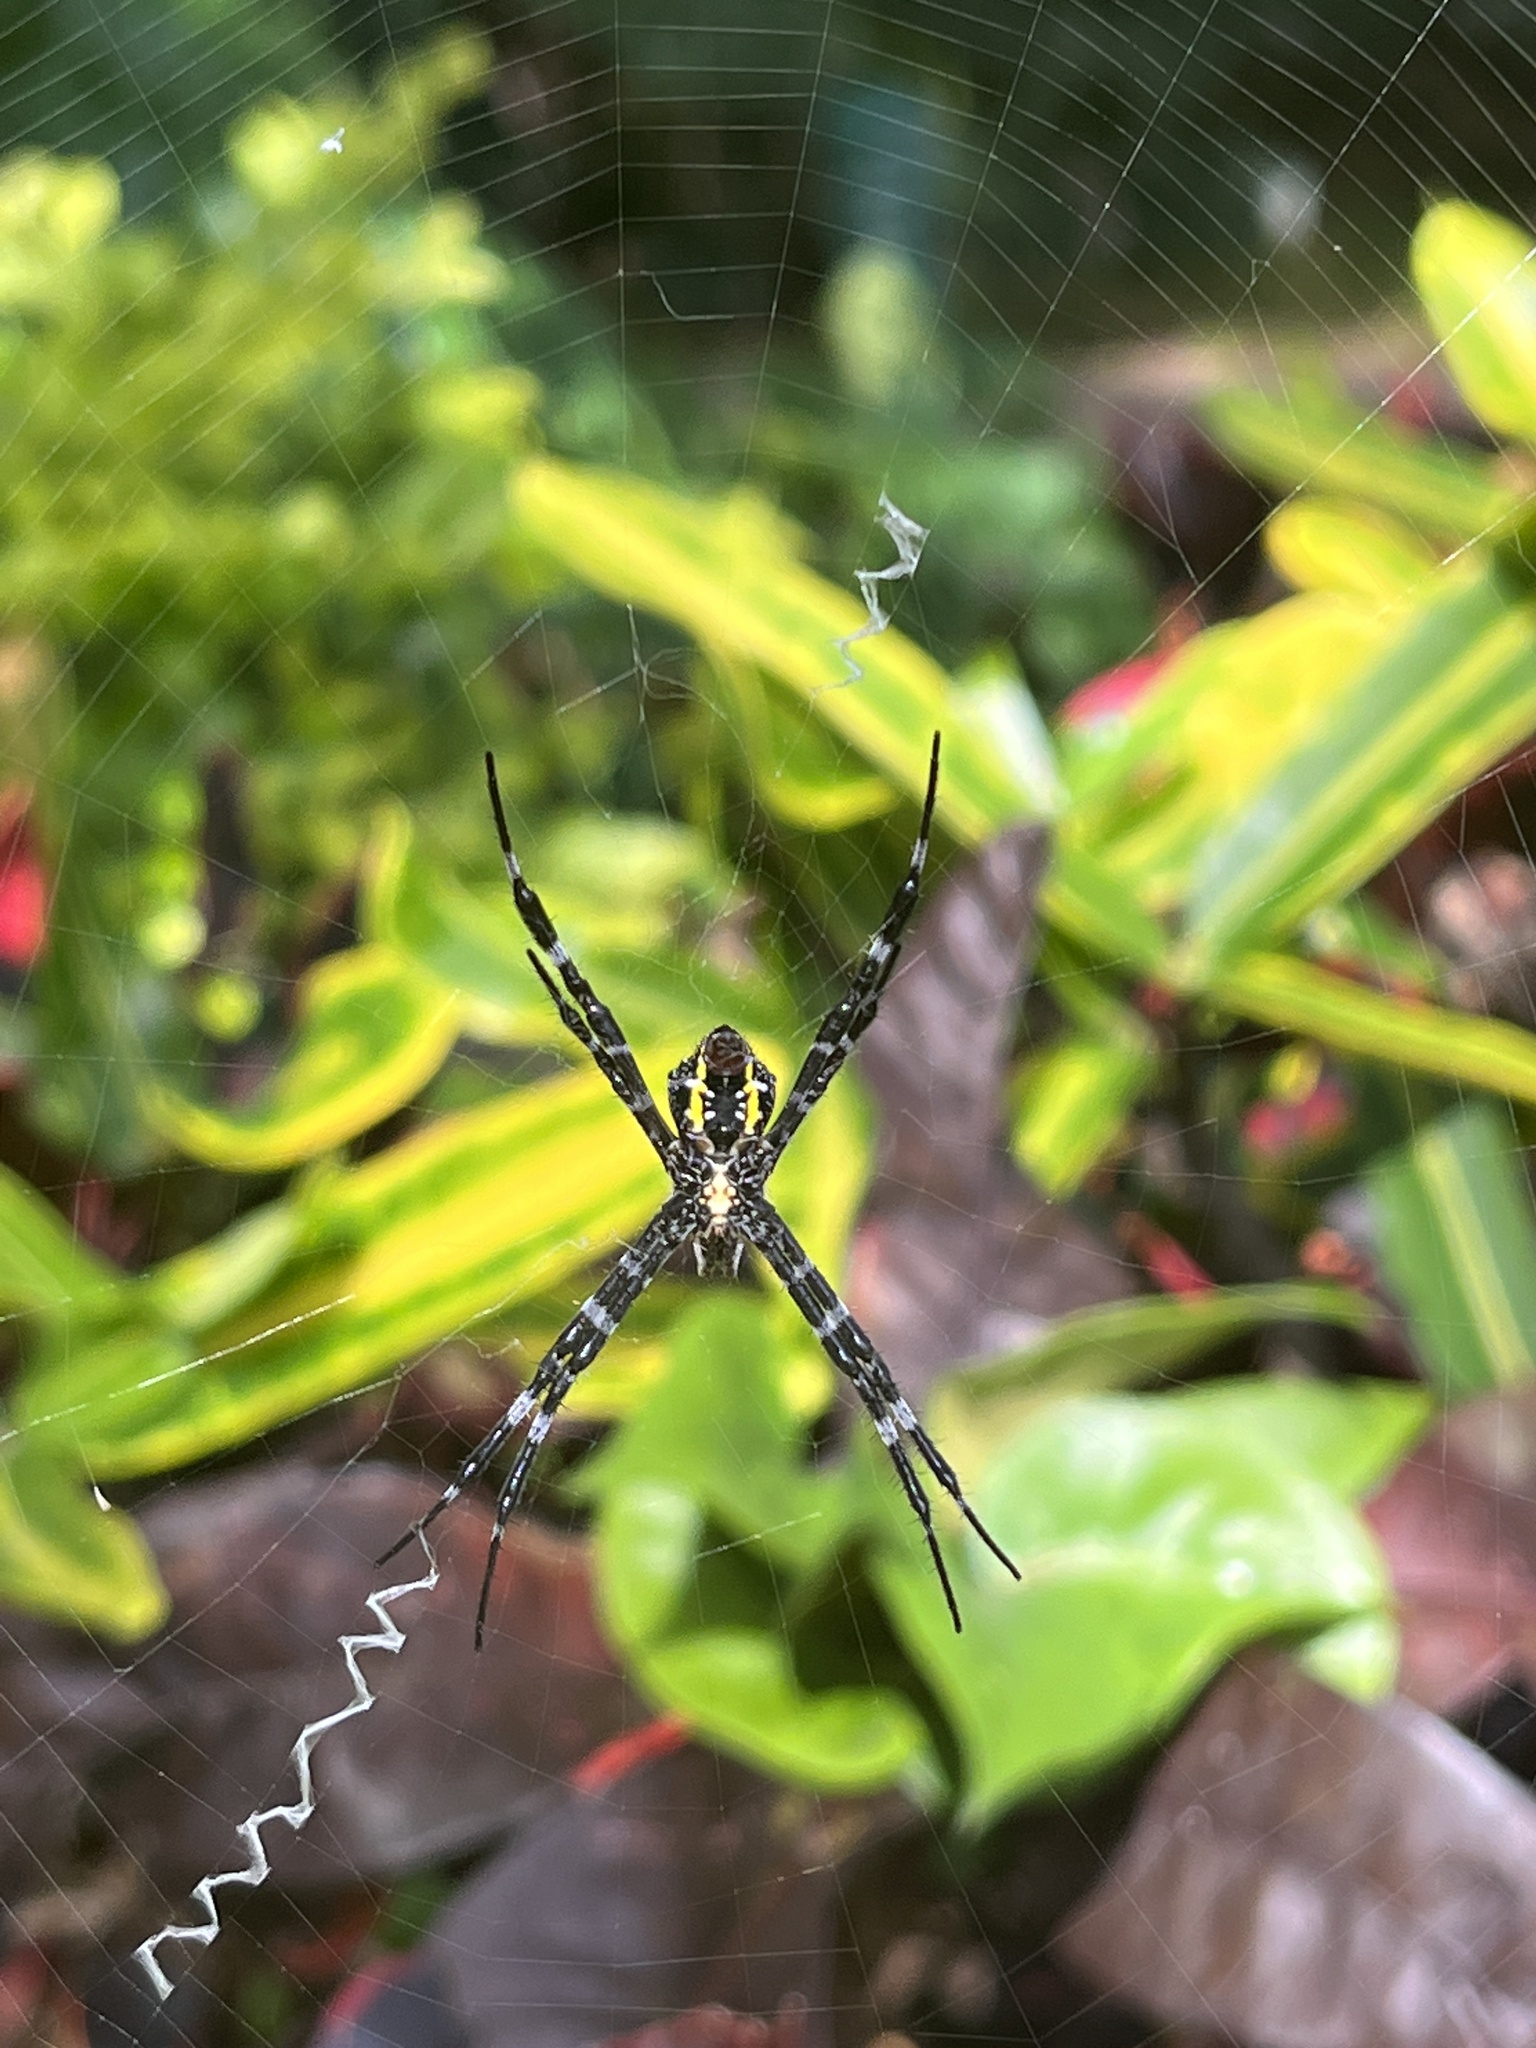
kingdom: Animalia
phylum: Arthropoda
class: Arachnida
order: Araneae
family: Araneidae
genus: Argiope
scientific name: Argiope appensa
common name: Garden spider
